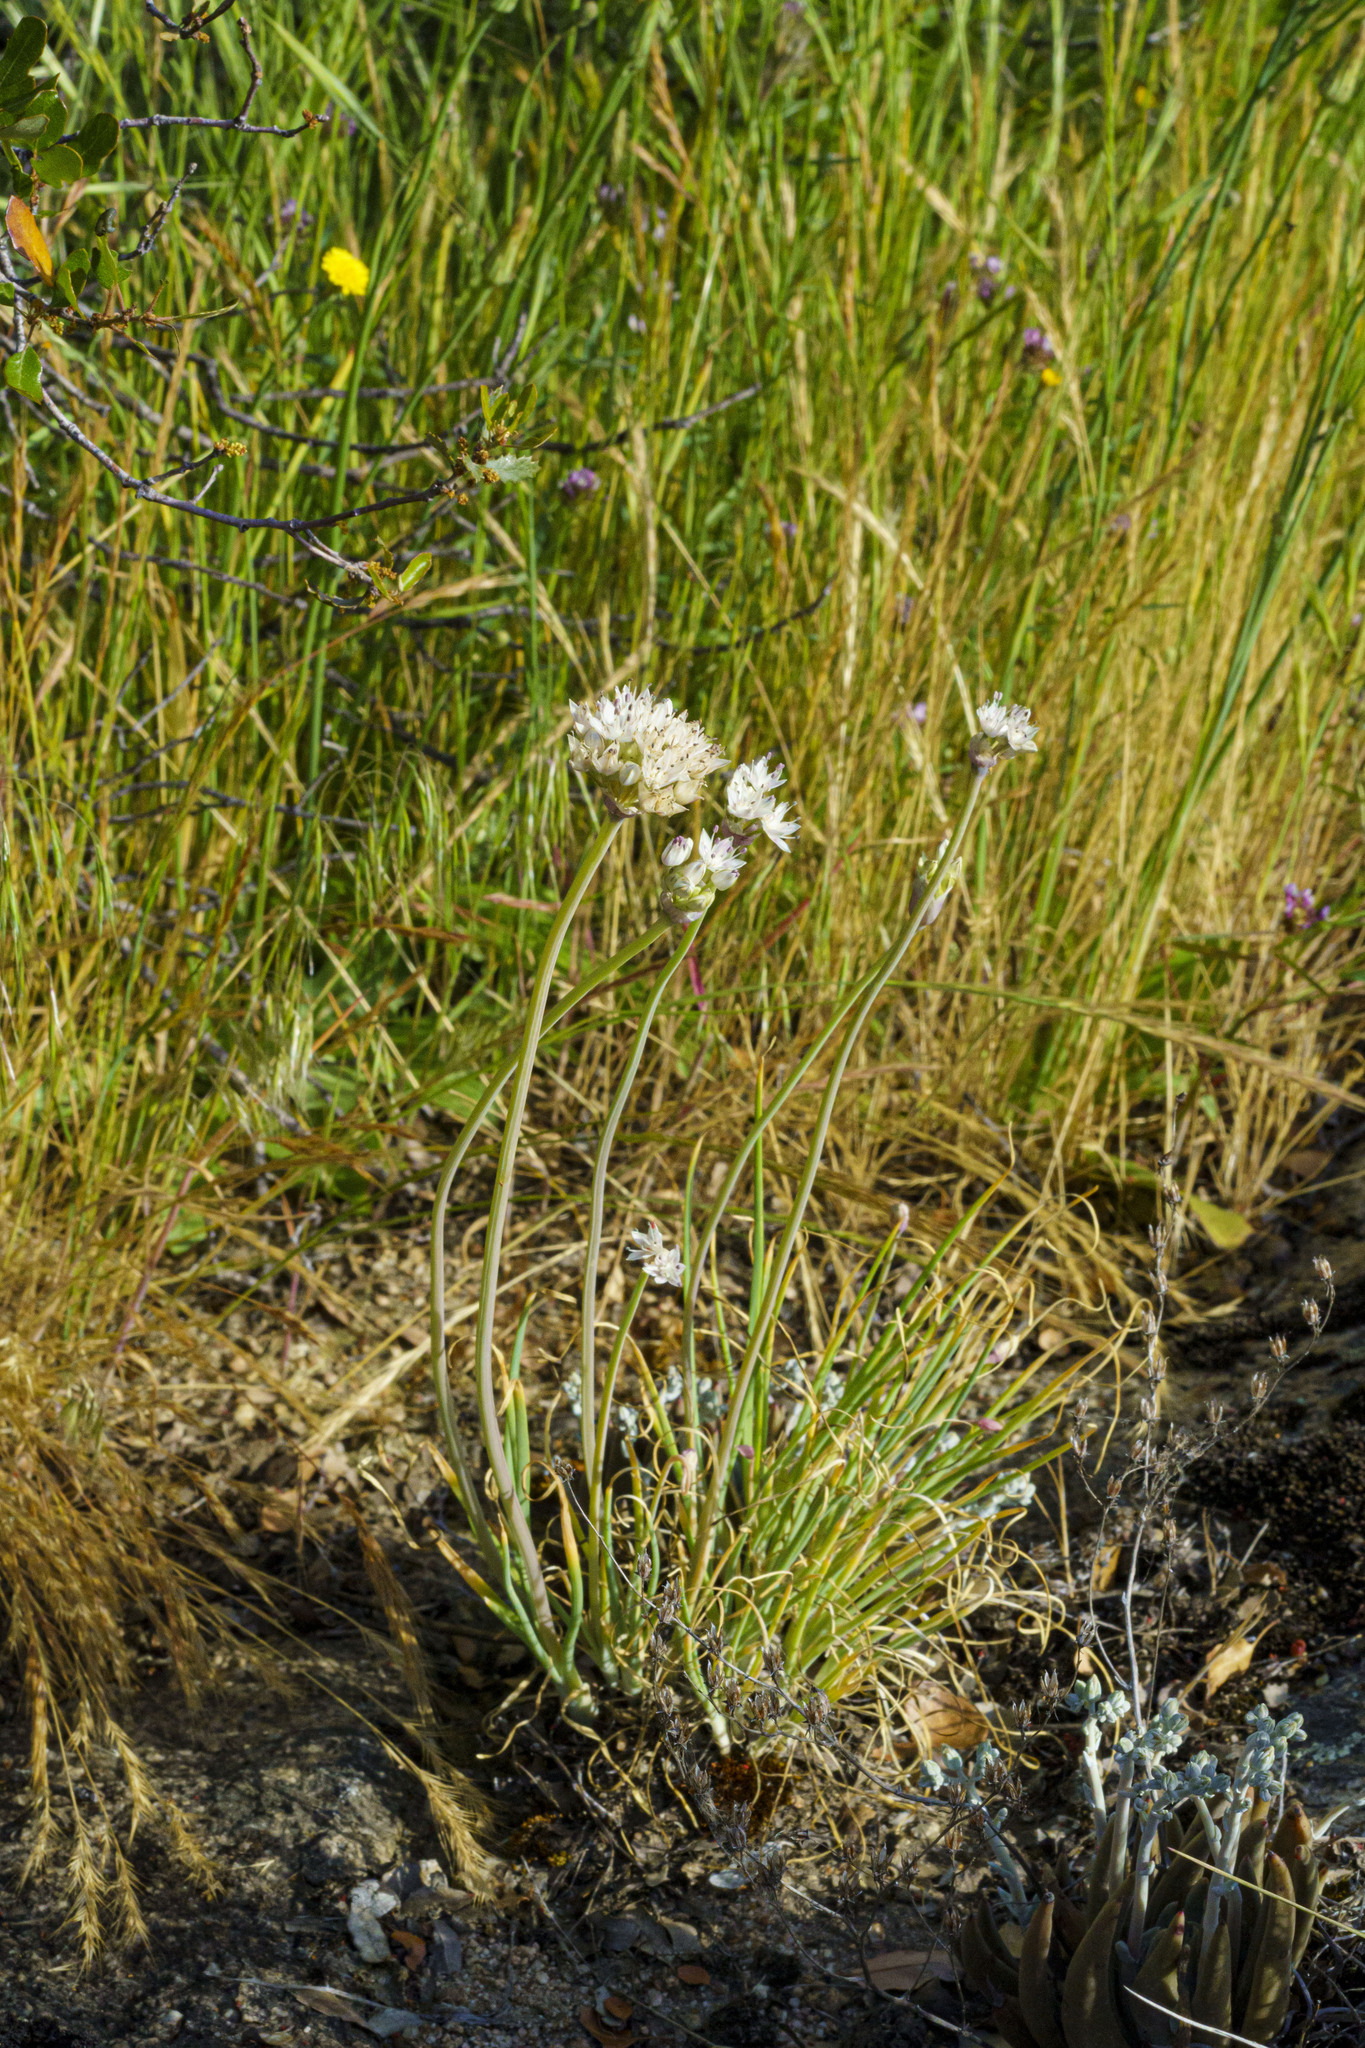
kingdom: Plantae
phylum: Tracheophyta
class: Liliopsida
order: Asparagales
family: Amaryllidaceae
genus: Allium
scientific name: Allium haematochiton
